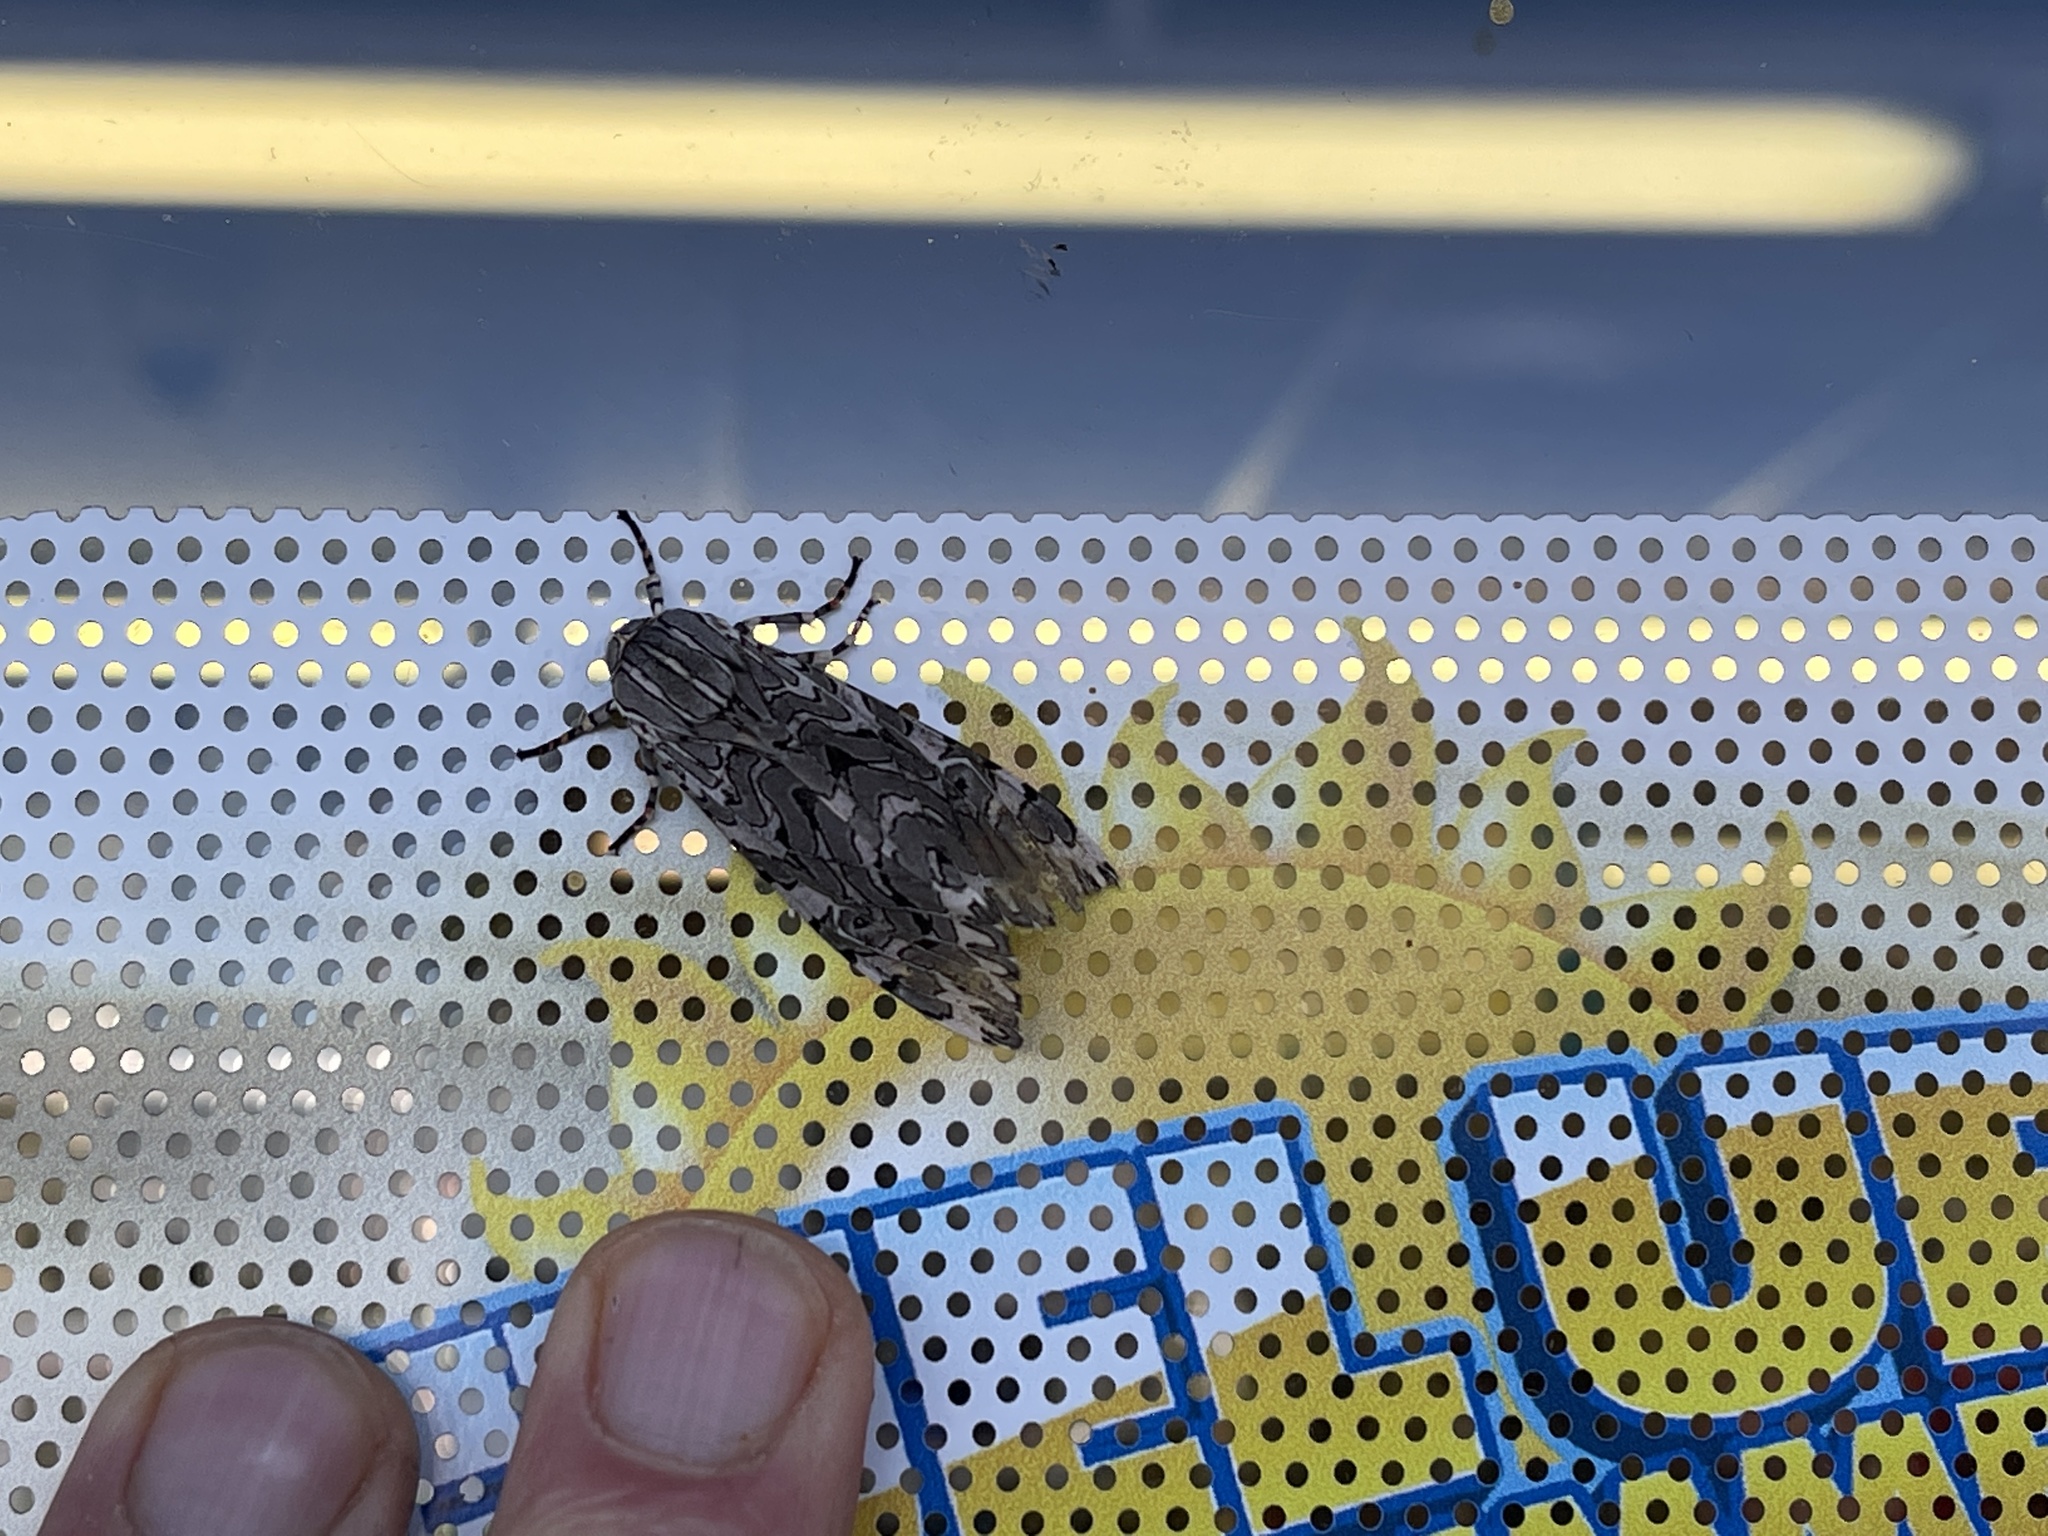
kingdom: Animalia
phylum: Arthropoda
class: Insecta
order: Lepidoptera
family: Erebidae
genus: Arachnis
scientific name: Arachnis picta
